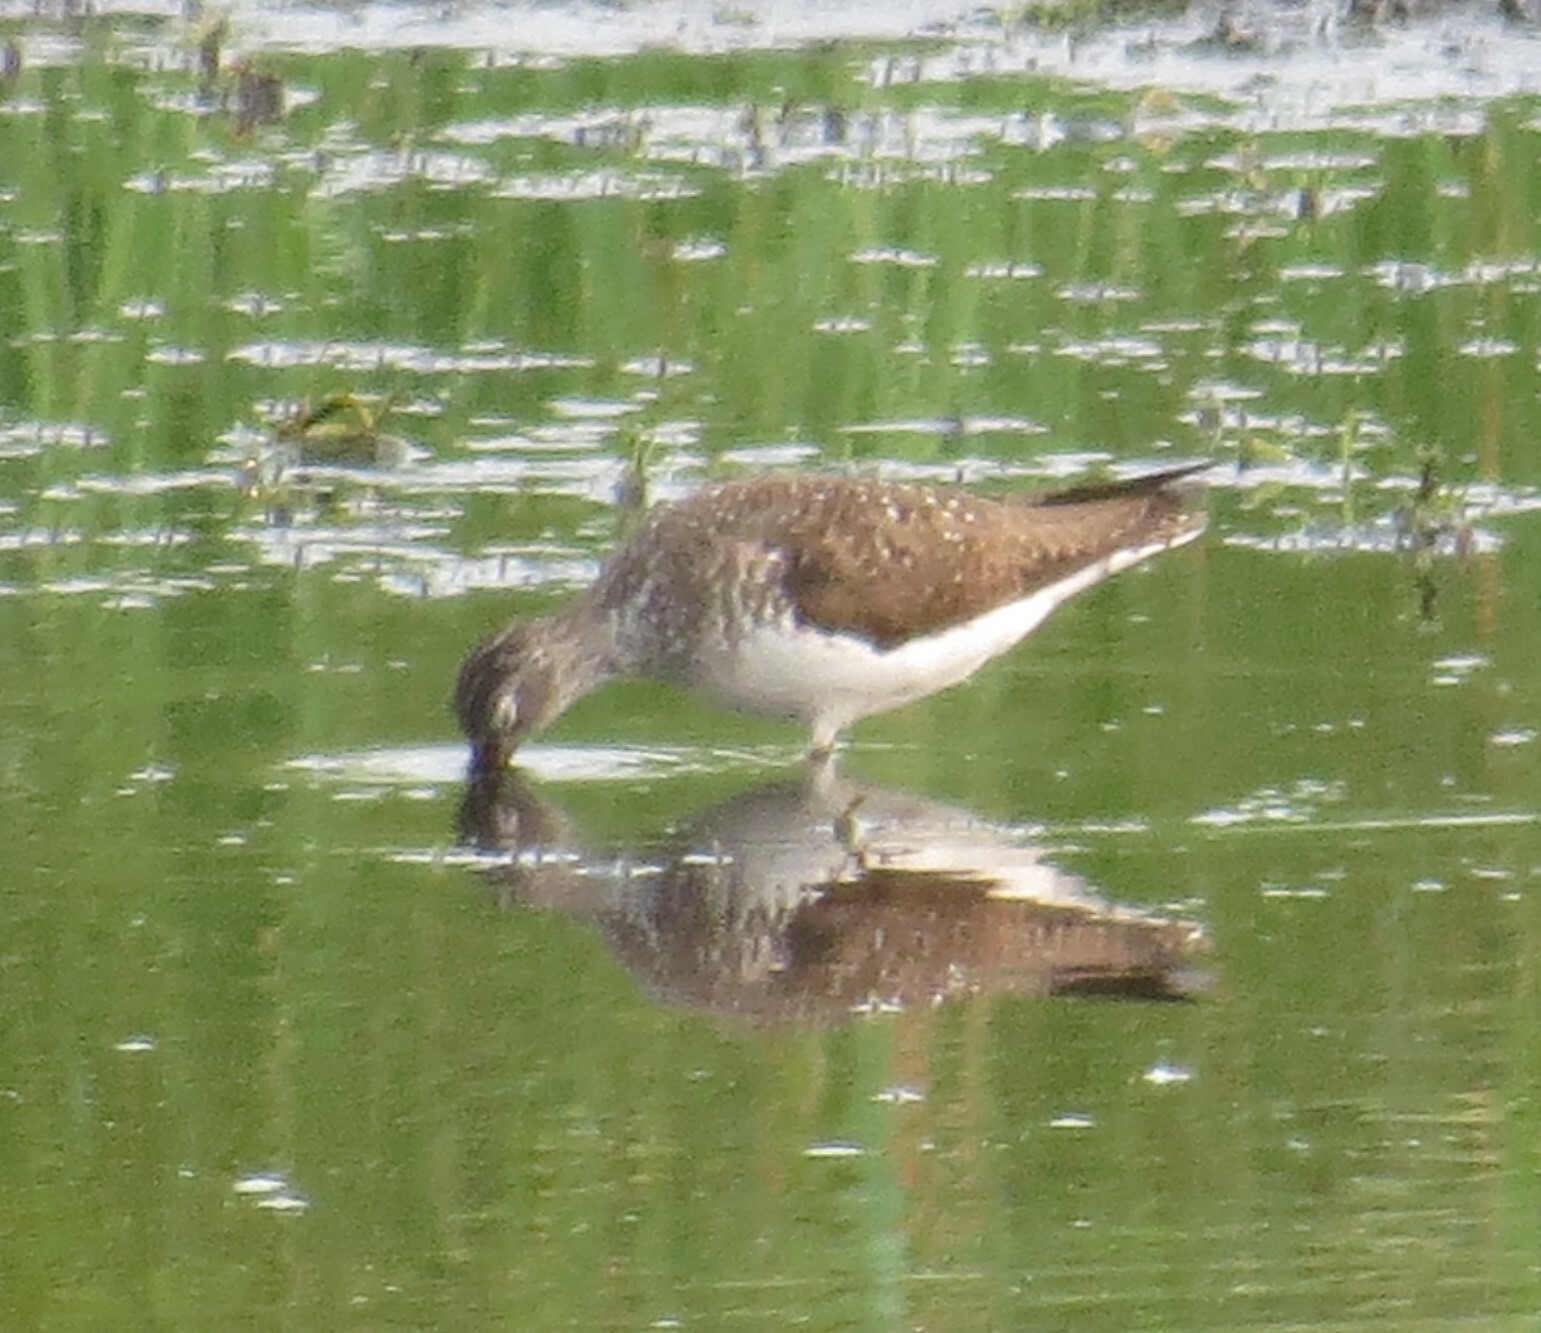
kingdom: Animalia
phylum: Chordata
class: Aves
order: Charadriiformes
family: Scolopacidae
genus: Tringa
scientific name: Tringa solitaria
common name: Solitary sandpiper
